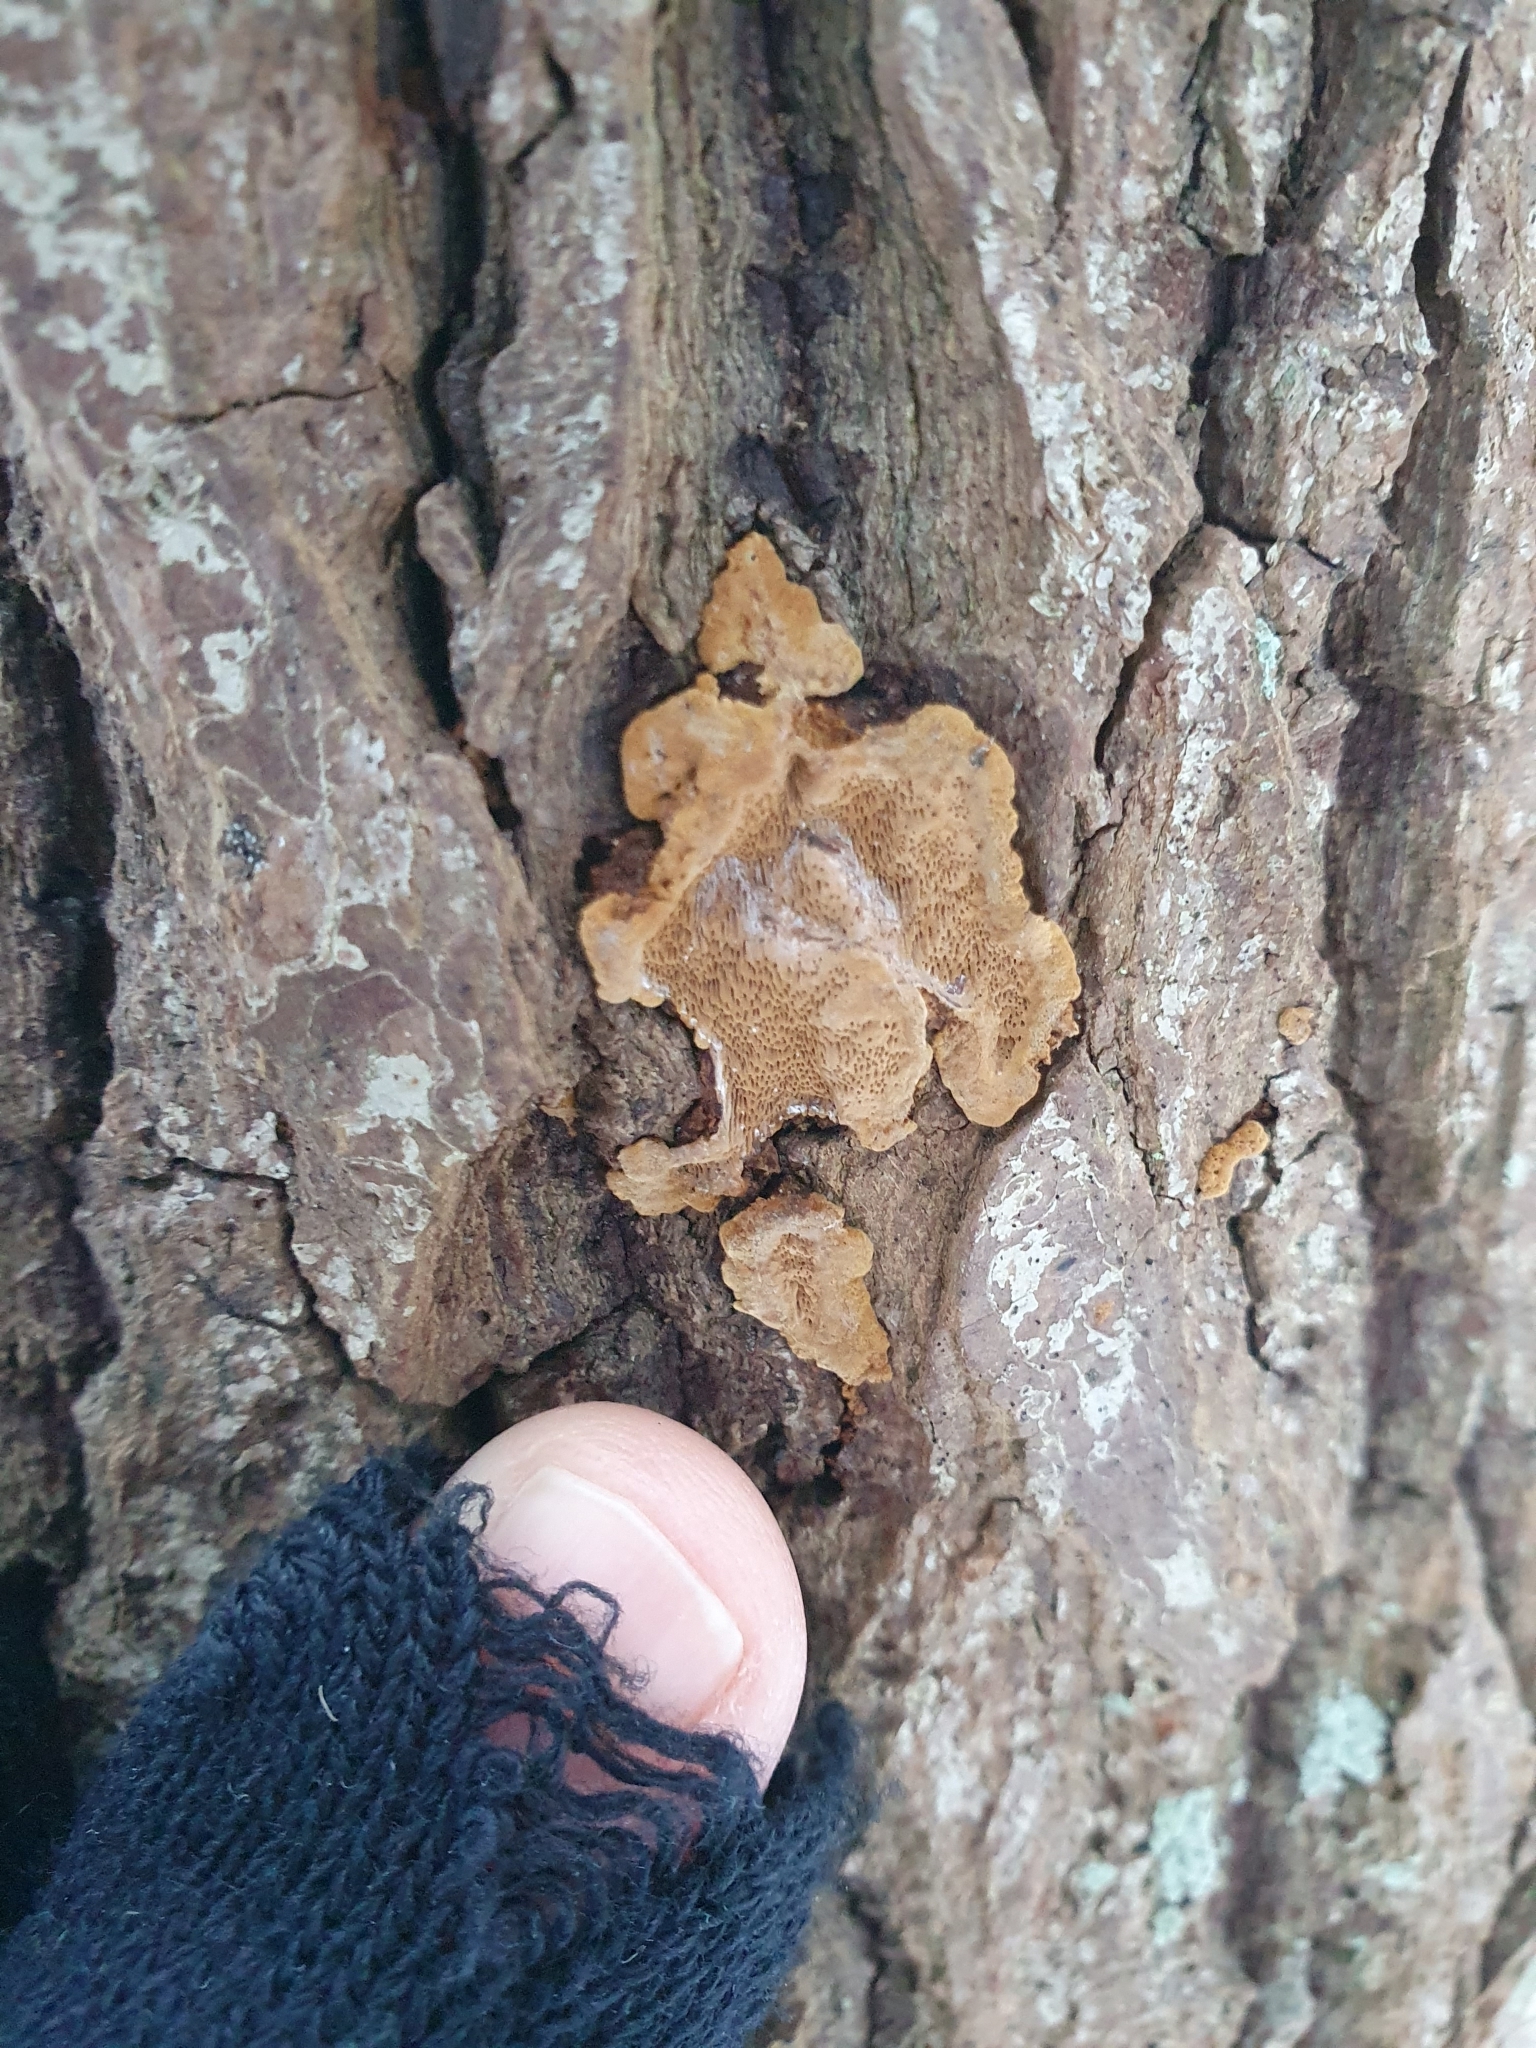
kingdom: Fungi
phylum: Basidiomycota
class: Agaricomycetes
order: Hymenochaetales
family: Hymenochaetaceae
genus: Phellinopsis
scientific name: Phellinopsis conchata
